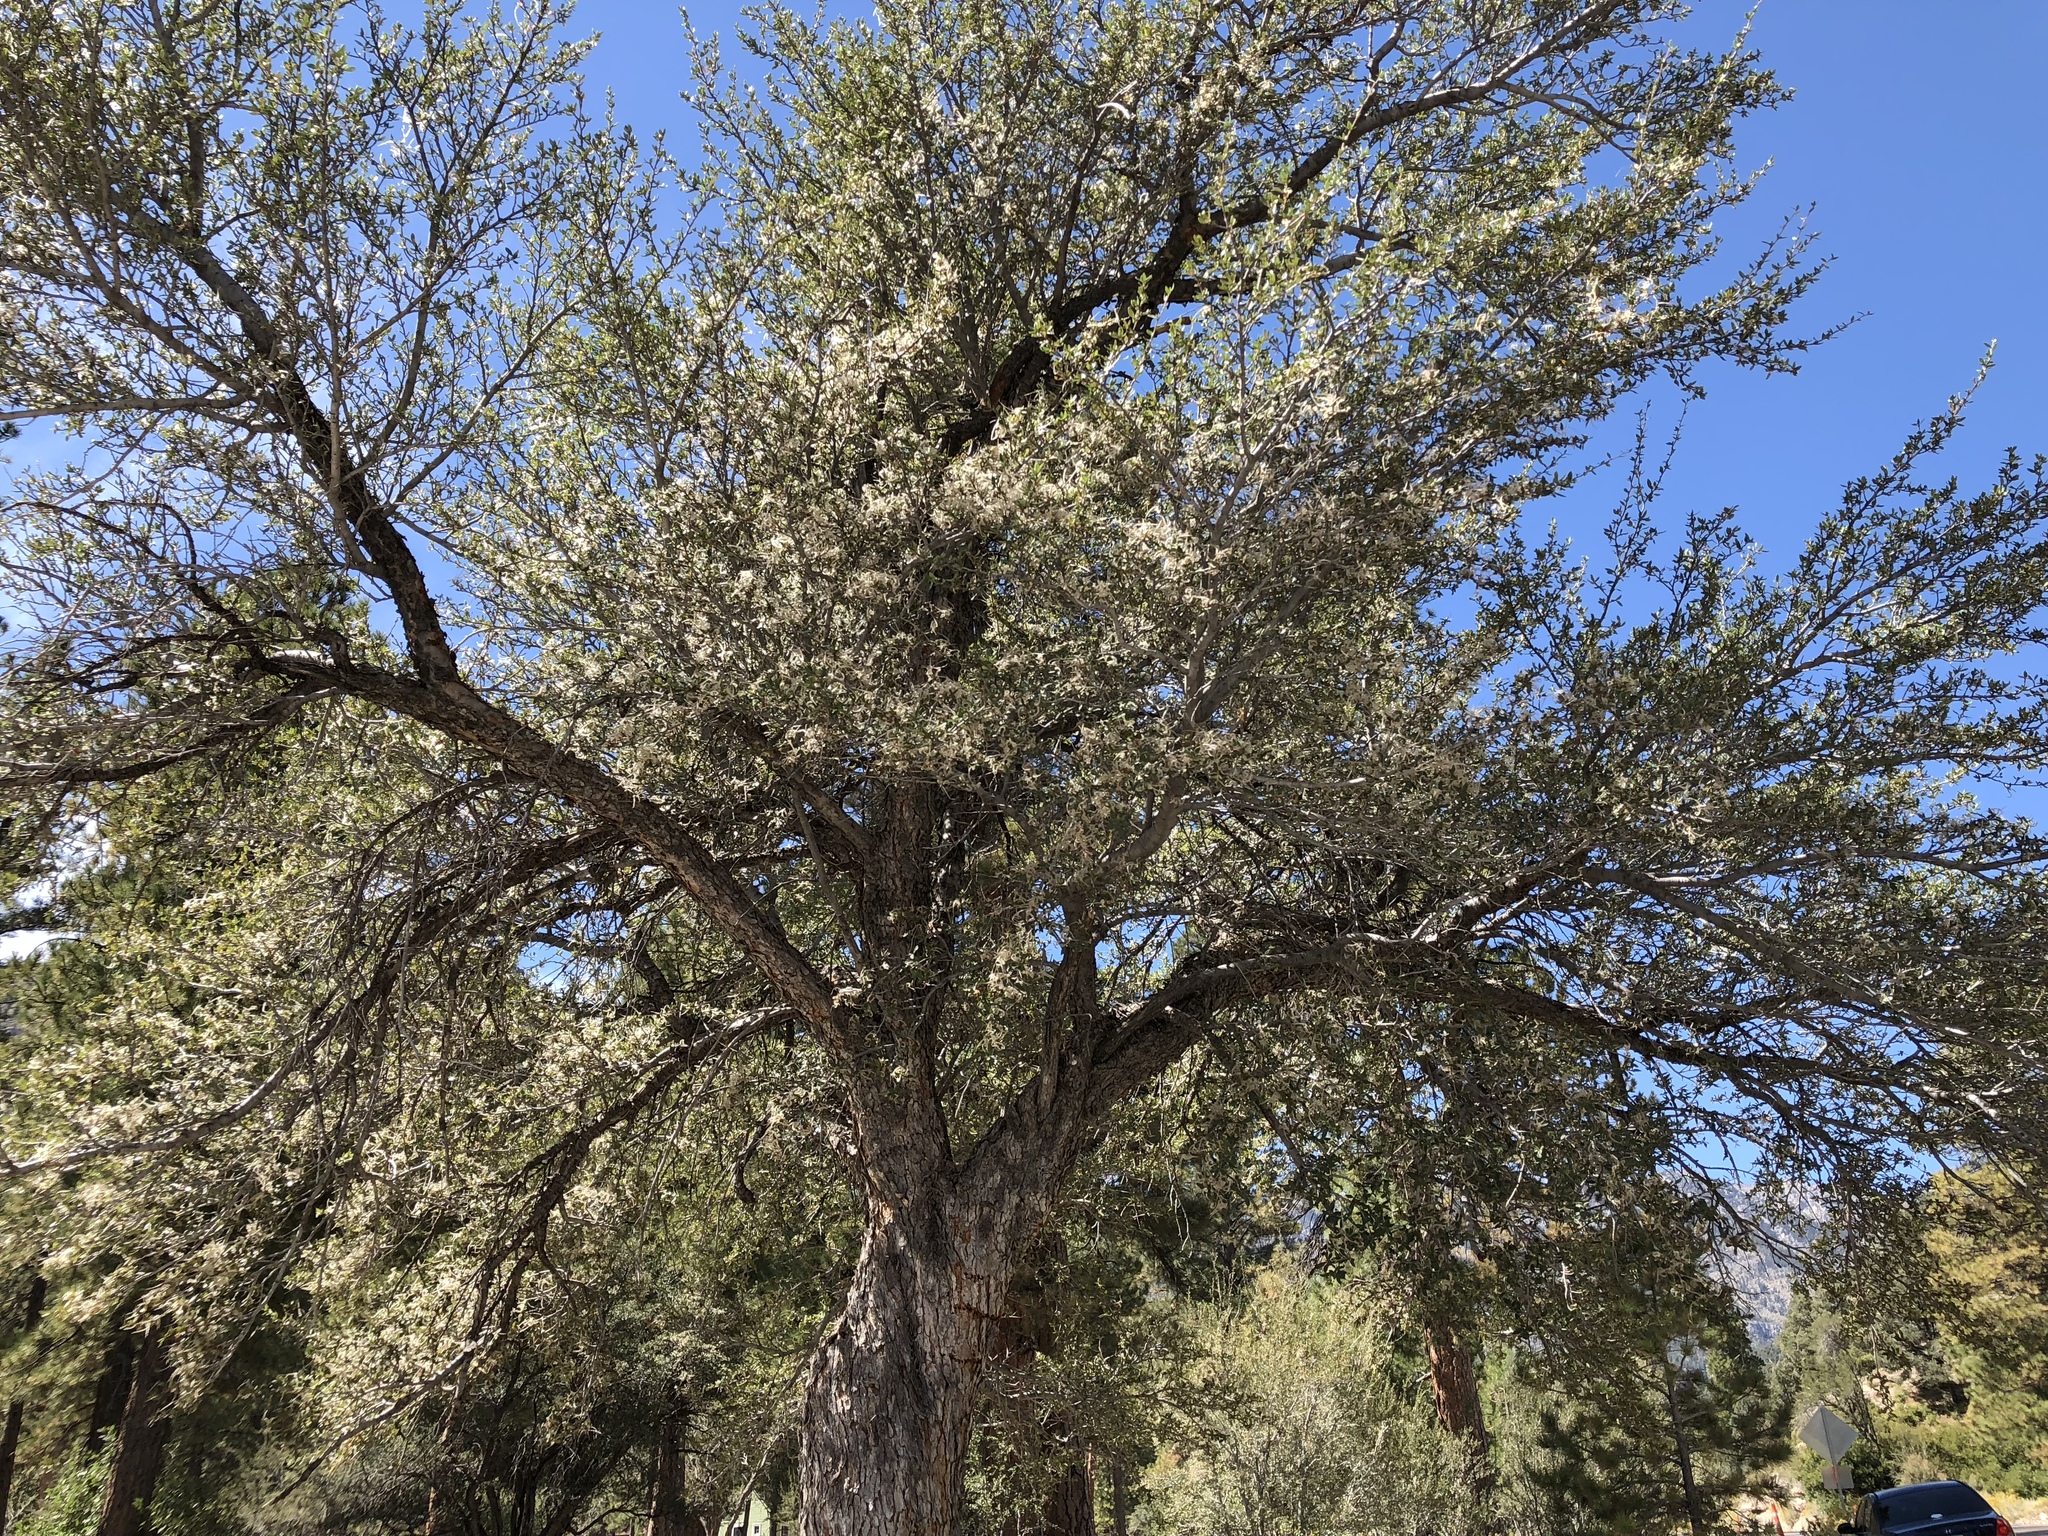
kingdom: Plantae
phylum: Tracheophyta
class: Magnoliopsida
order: Rosales
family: Rosaceae
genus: Cercocarpus
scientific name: Cercocarpus ledifolius
